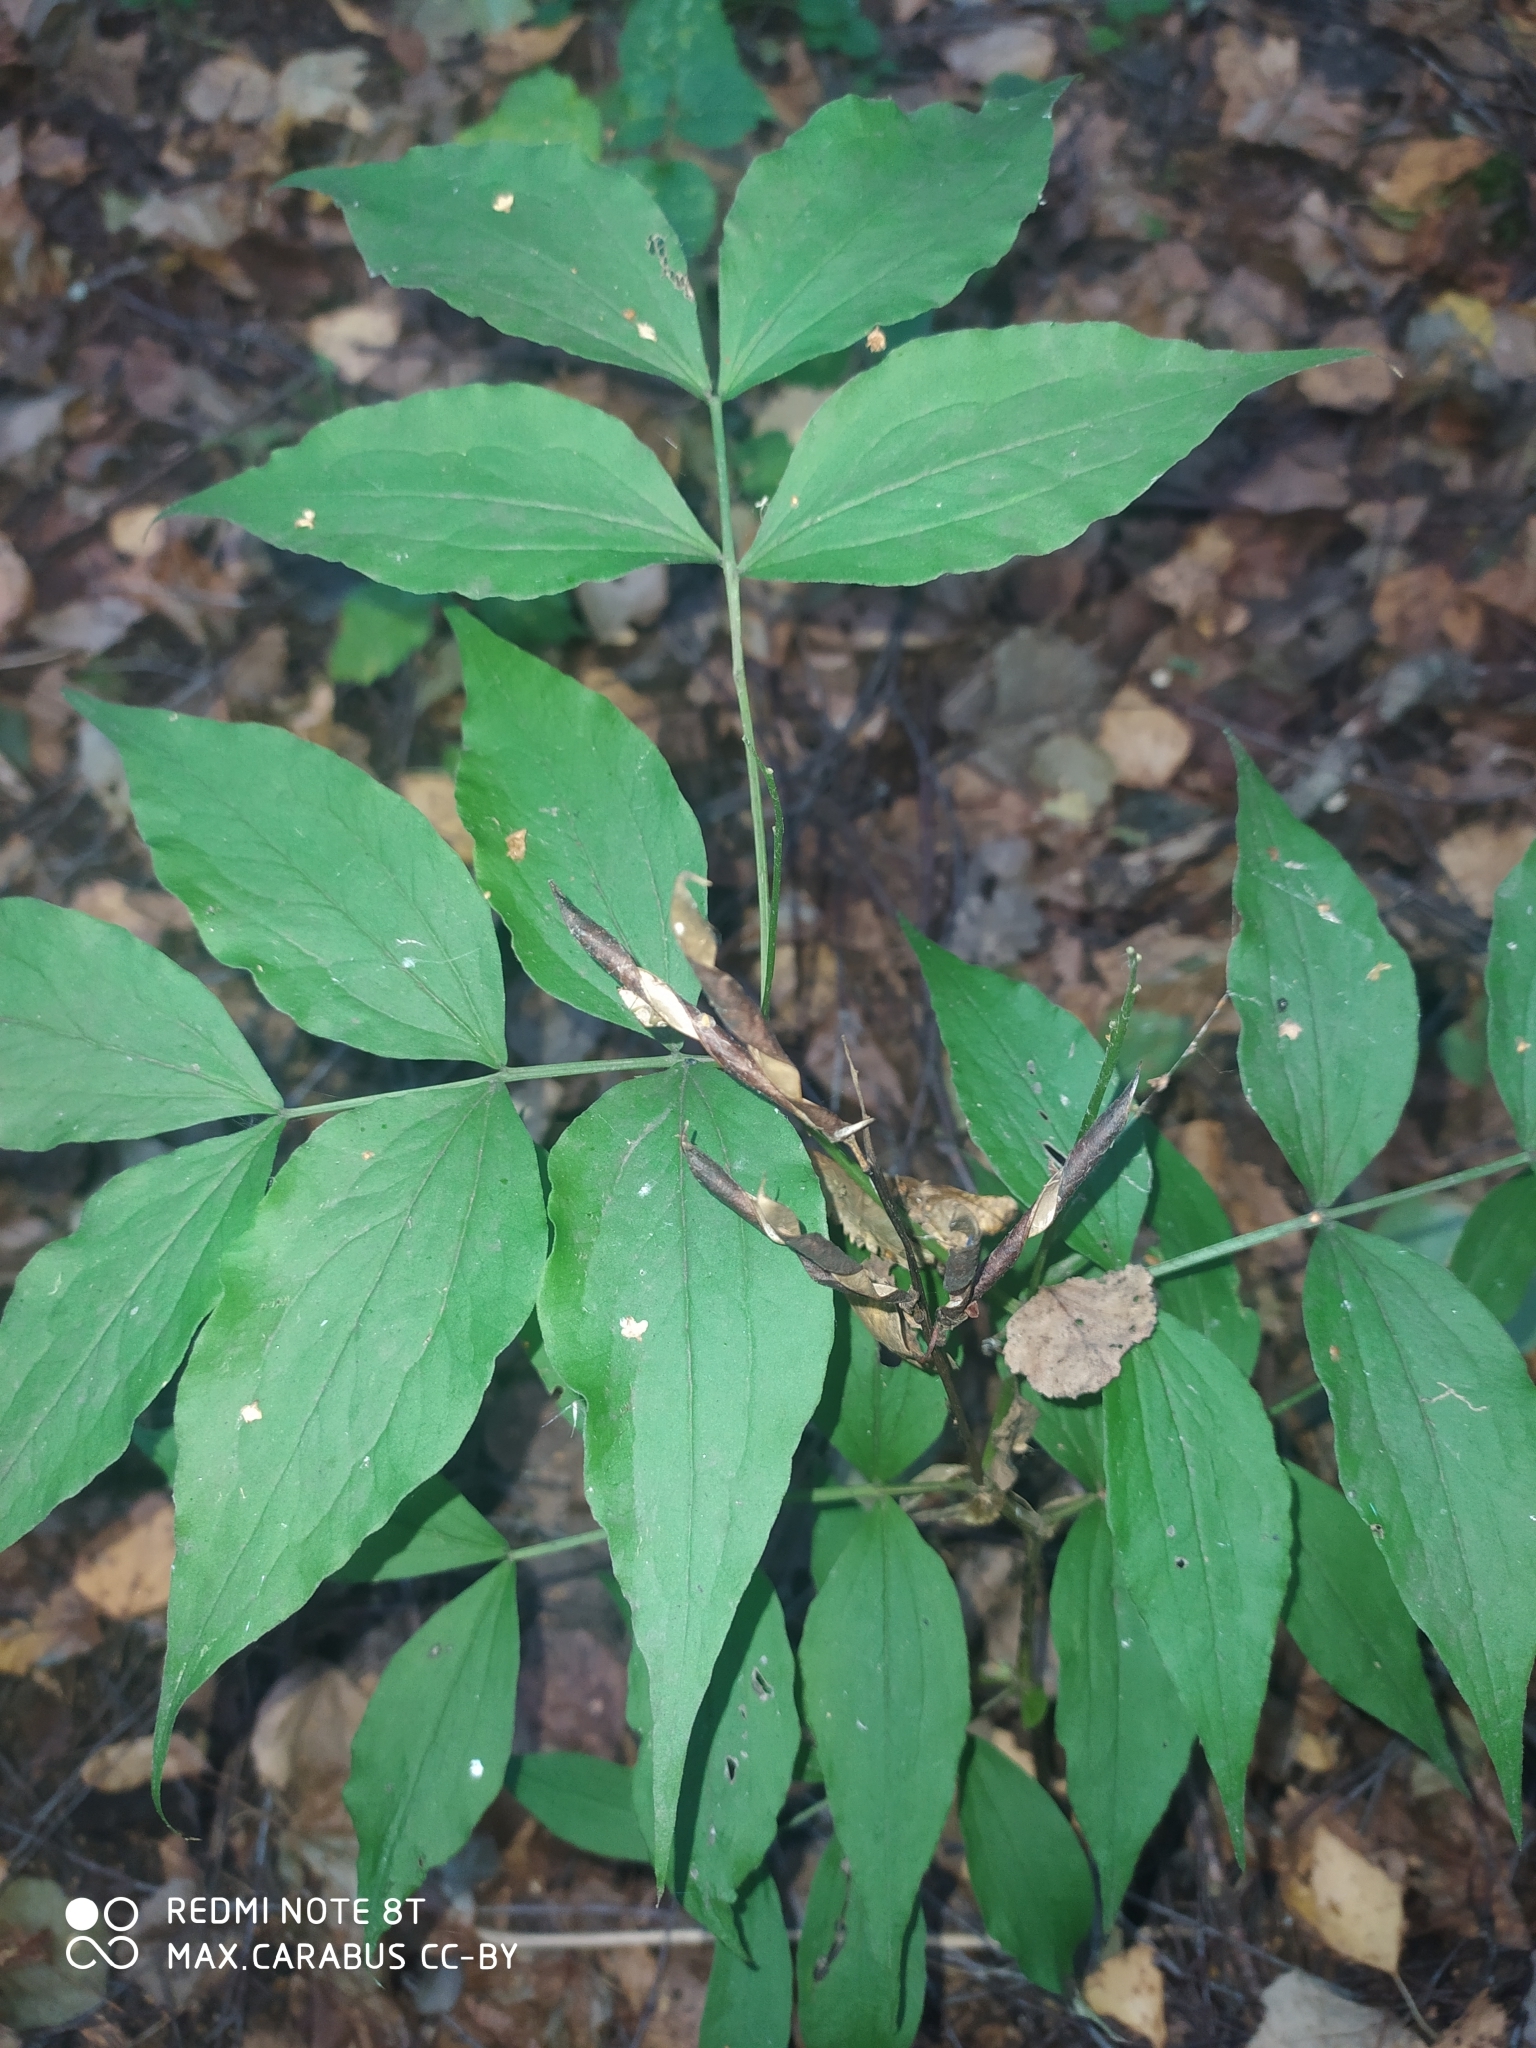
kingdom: Plantae
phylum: Tracheophyta
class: Magnoliopsida
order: Fabales
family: Fabaceae
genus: Lathyrus
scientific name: Lathyrus vernus
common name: Spring pea
